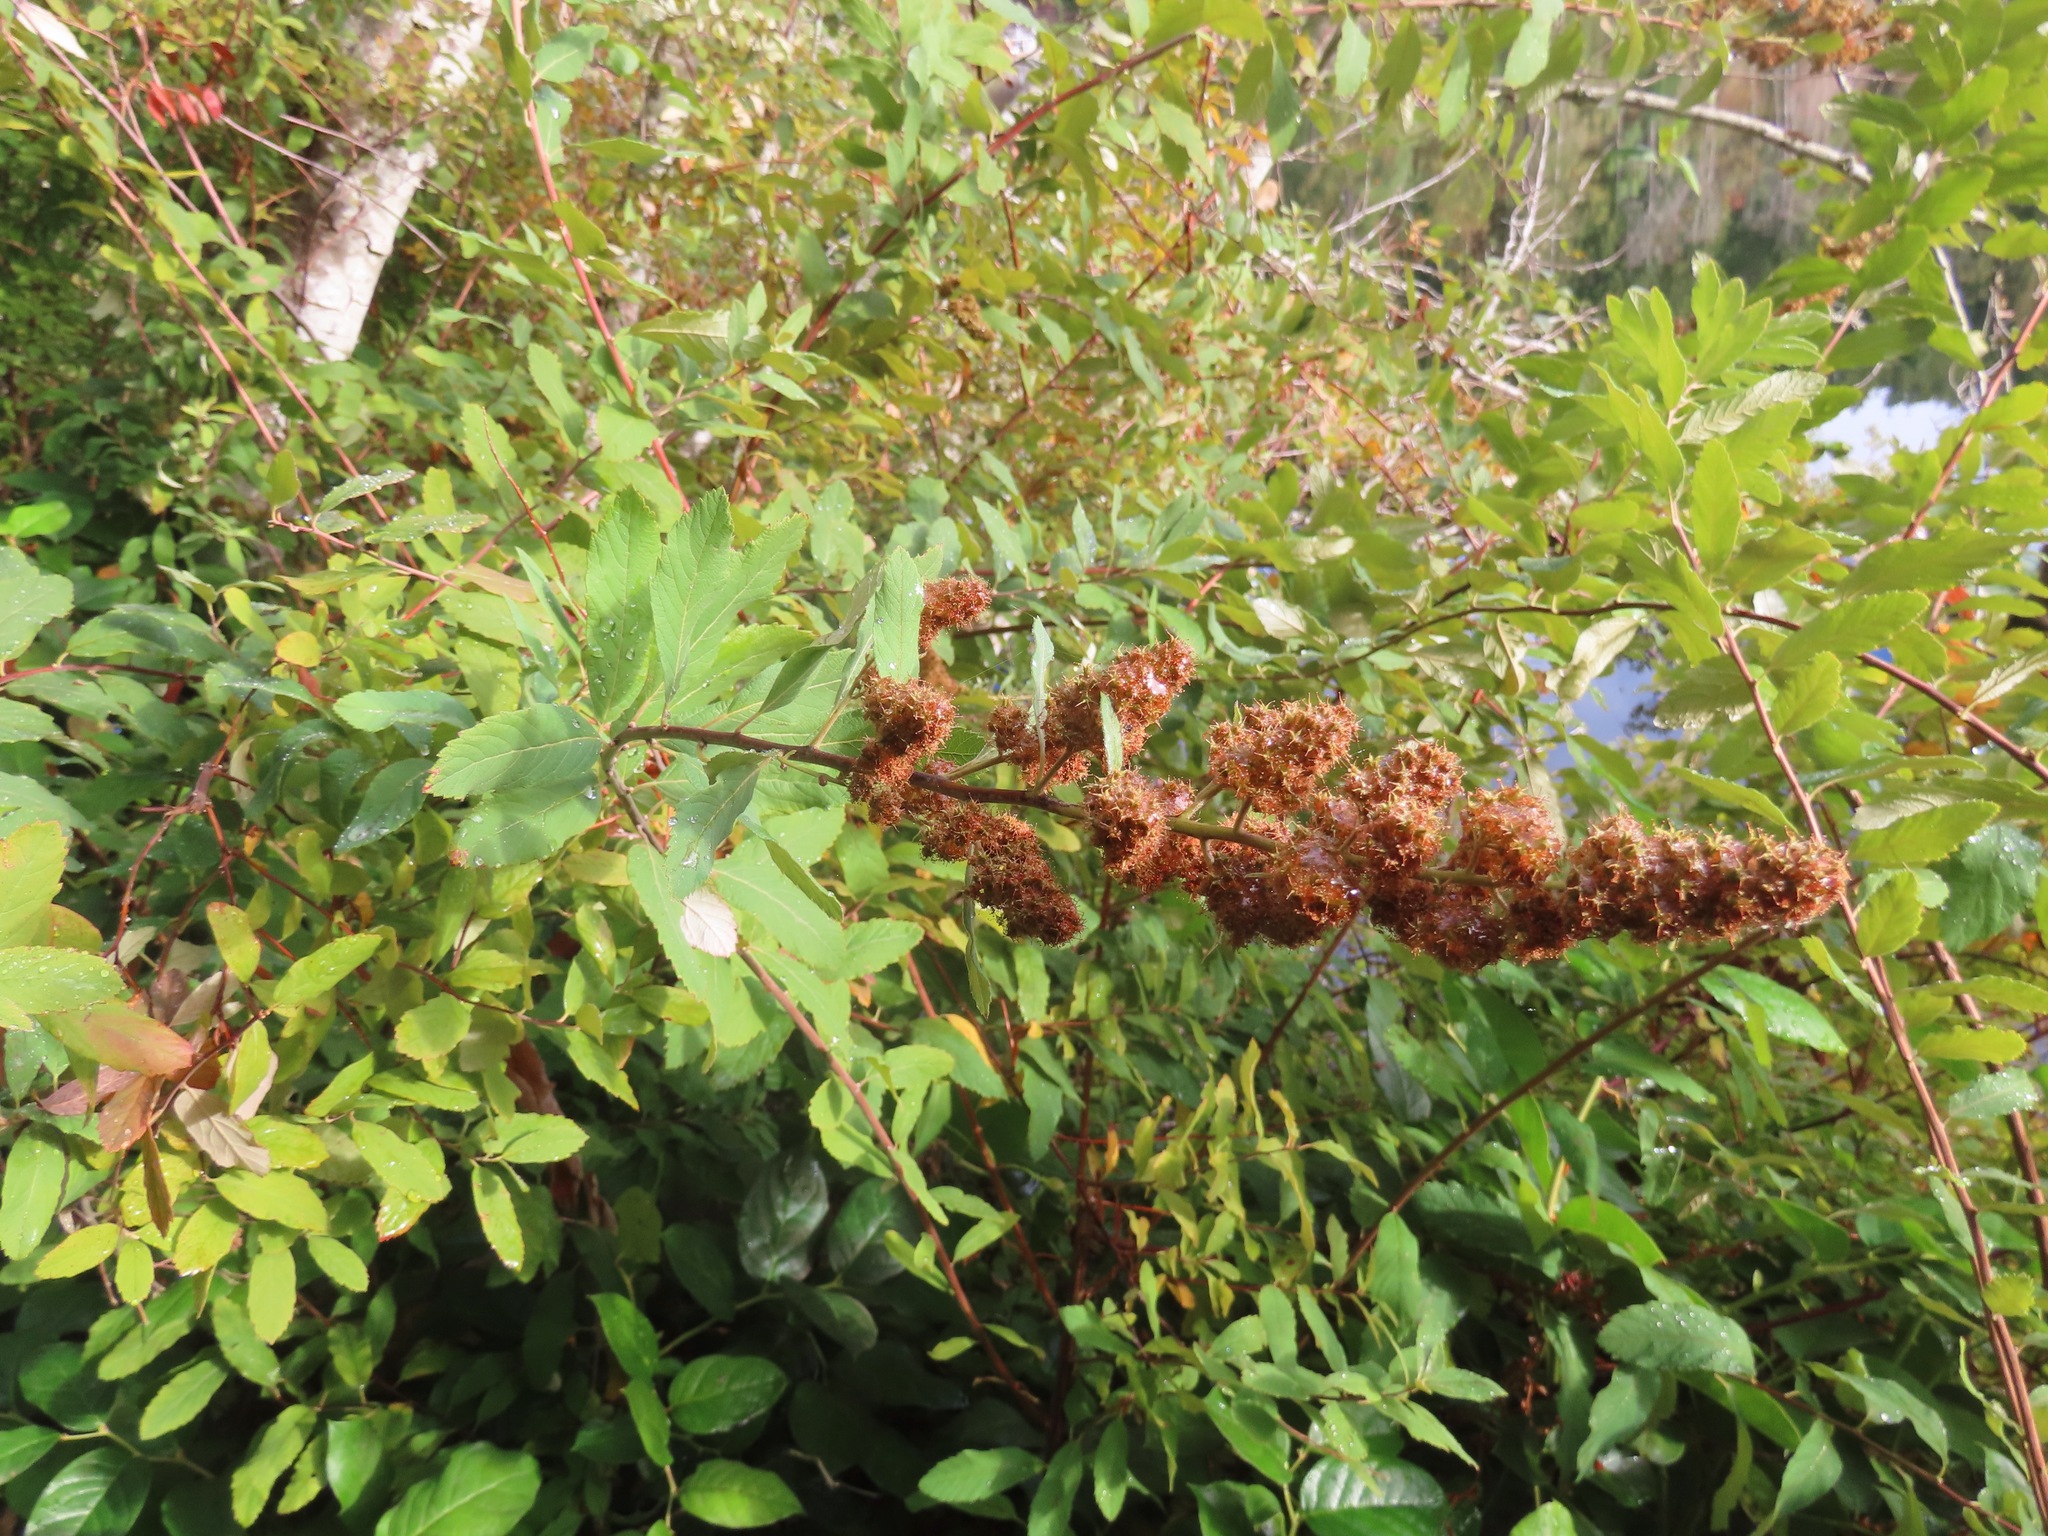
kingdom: Plantae
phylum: Tracheophyta
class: Magnoliopsida
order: Rosales
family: Rosaceae
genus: Spiraea
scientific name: Spiraea douglasii
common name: Steeplebush
